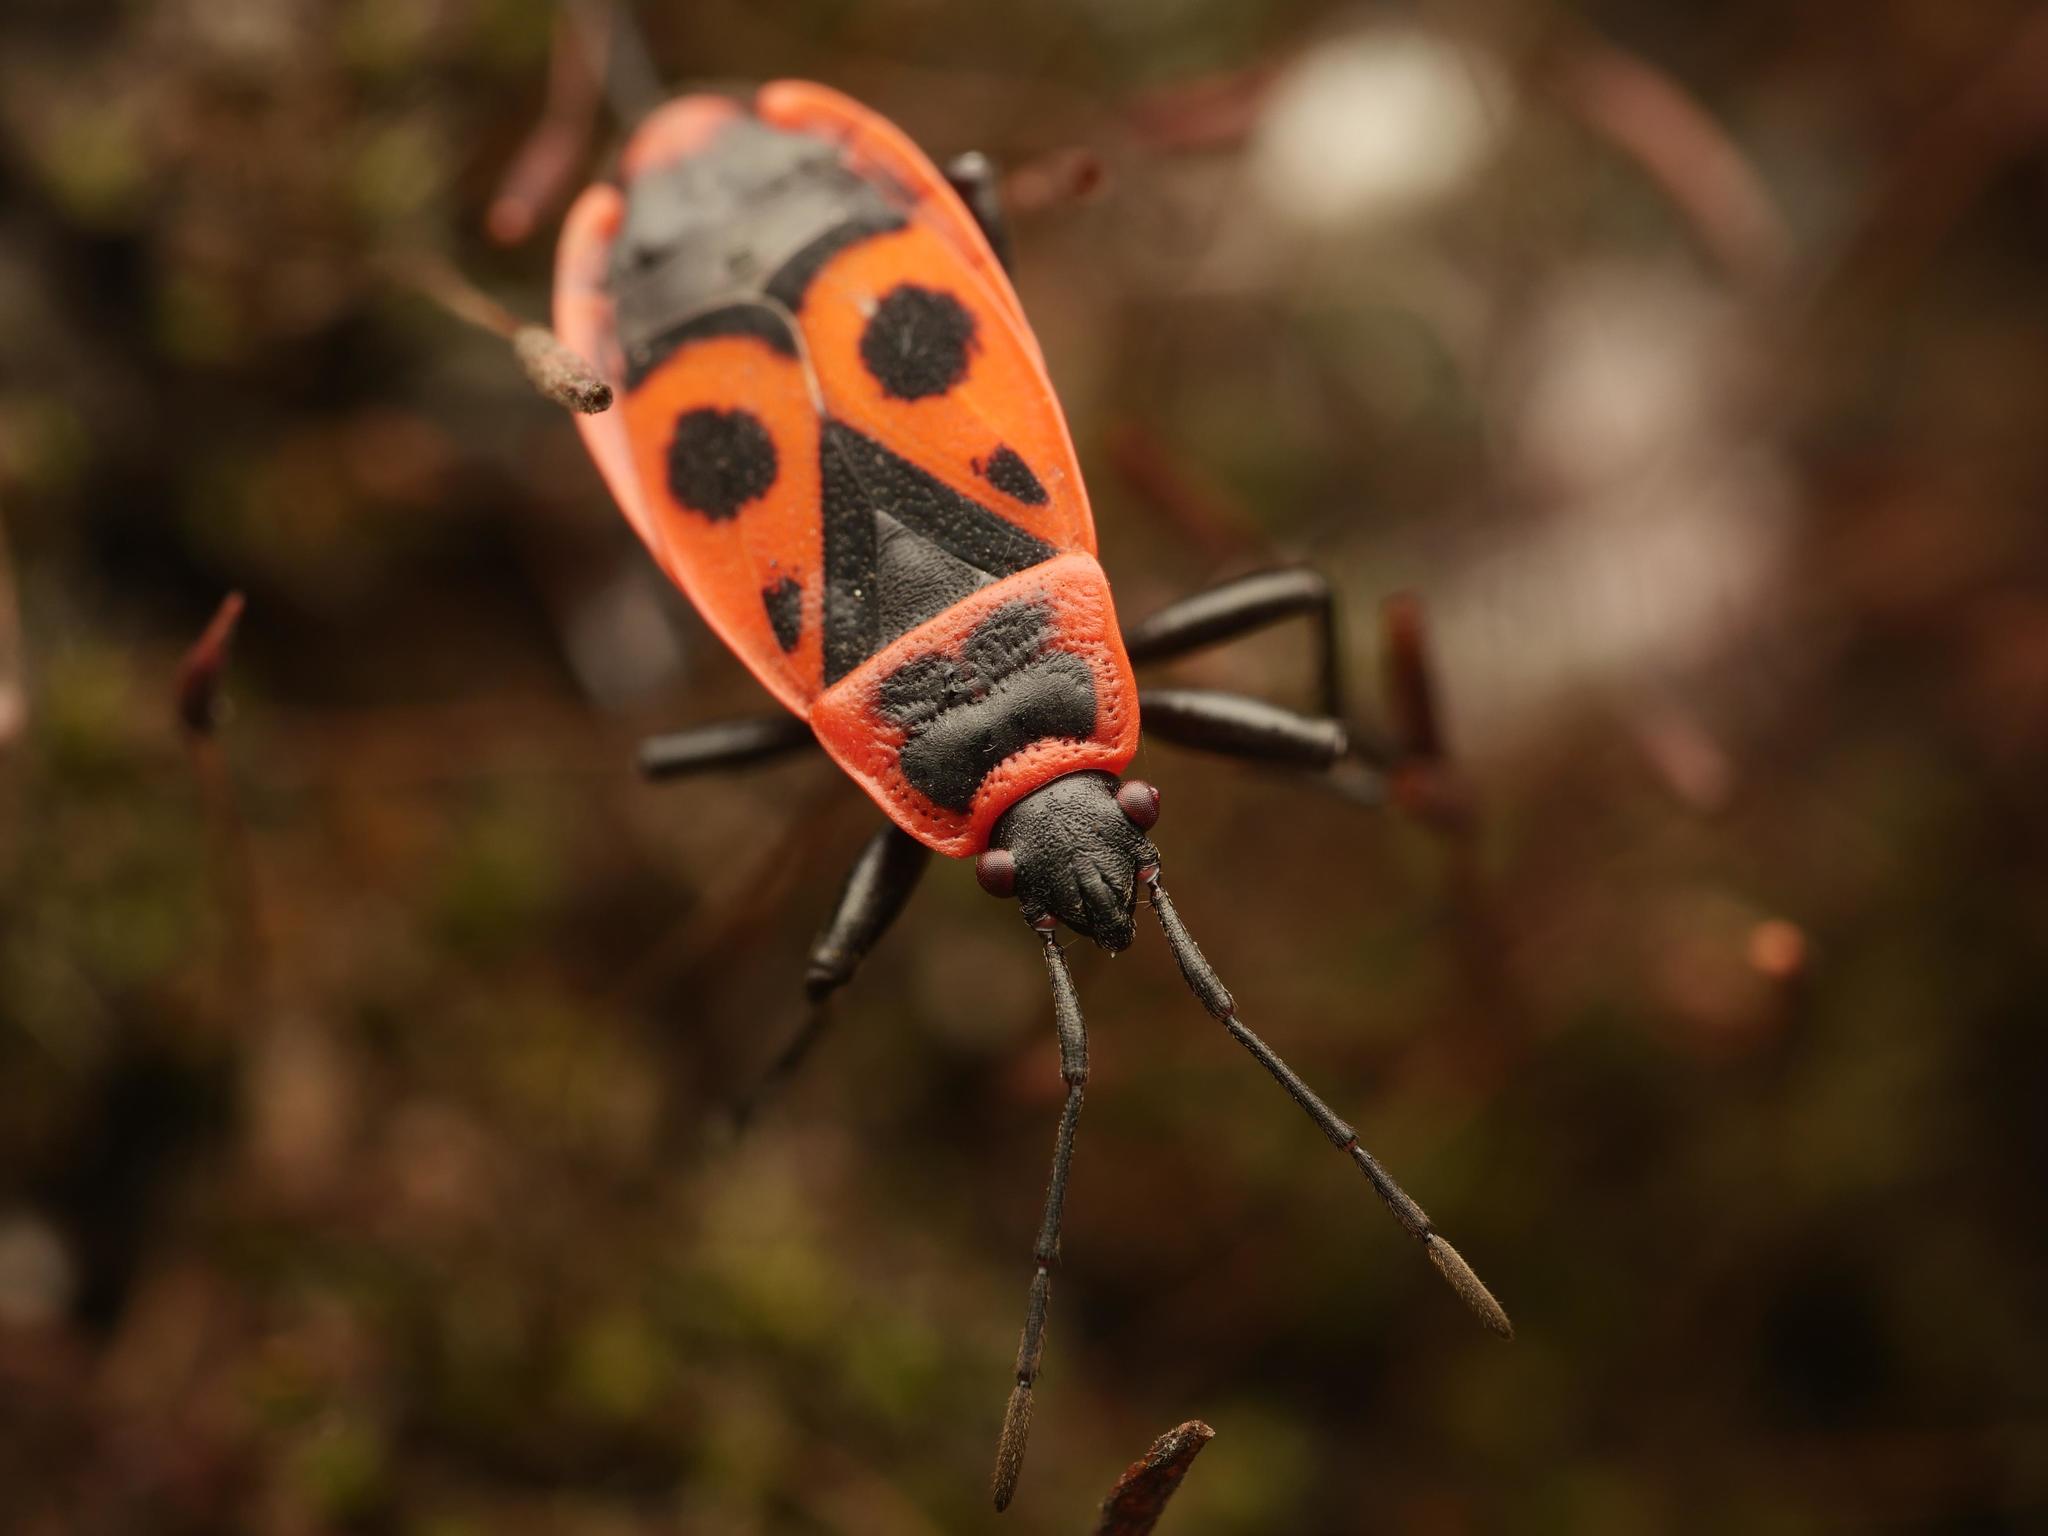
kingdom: Animalia
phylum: Arthropoda
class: Insecta
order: Hemiptera
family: Pyrrhocoridae
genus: Pyrrhocoris
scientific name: Pyrrhocoris apterus
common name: Firebug
